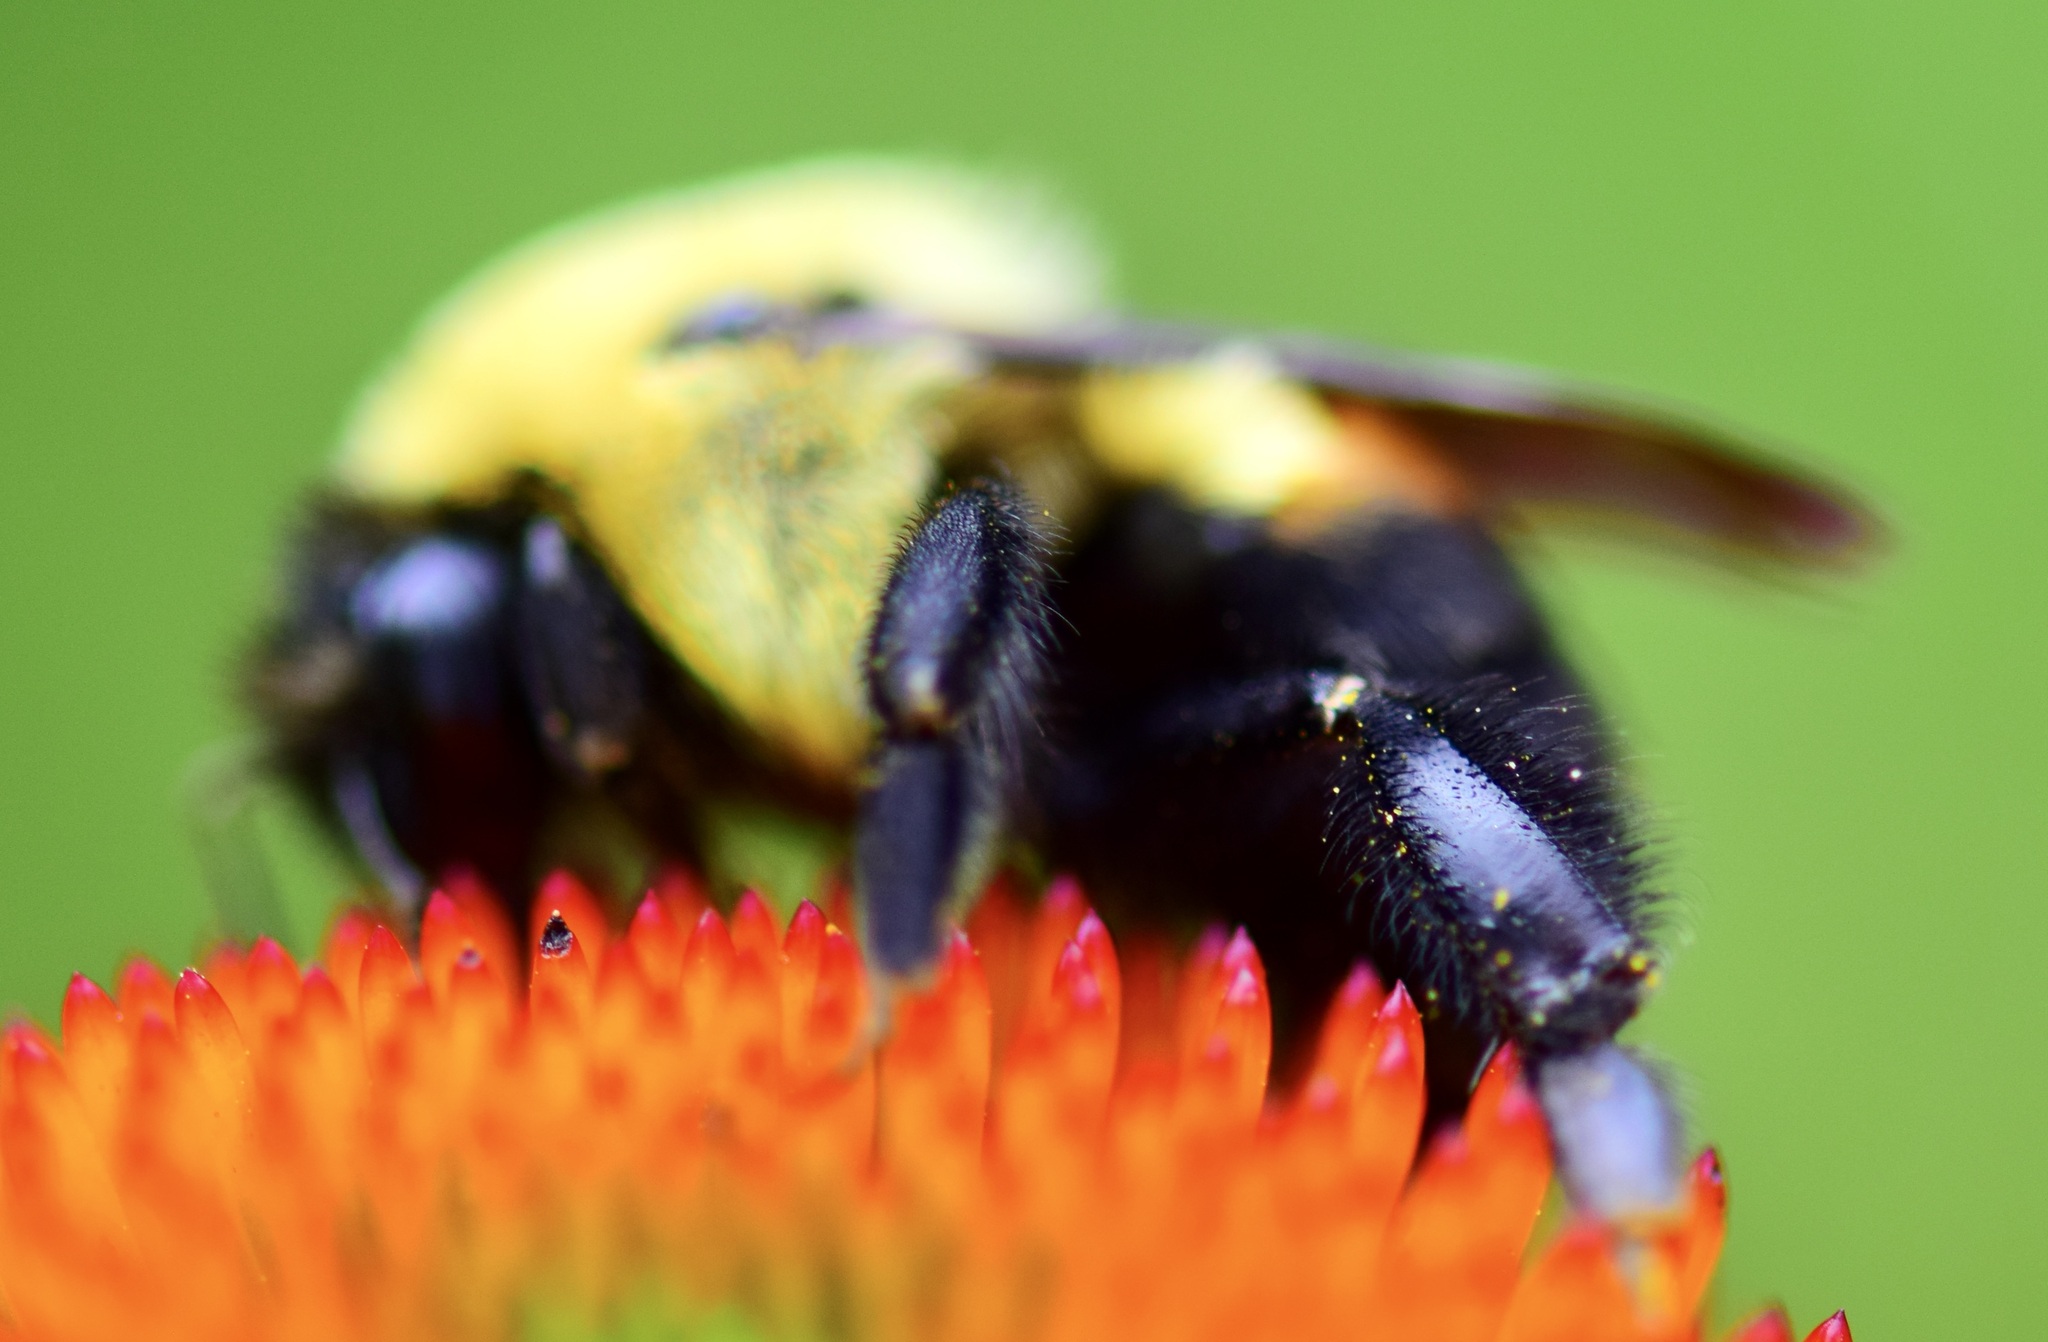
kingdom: Animalia
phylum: Arthropoda
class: Insecta
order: Hymenoptera
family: Apidae
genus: Bombus
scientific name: Bombus griseocollis
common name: Brown-belted bumble bee
